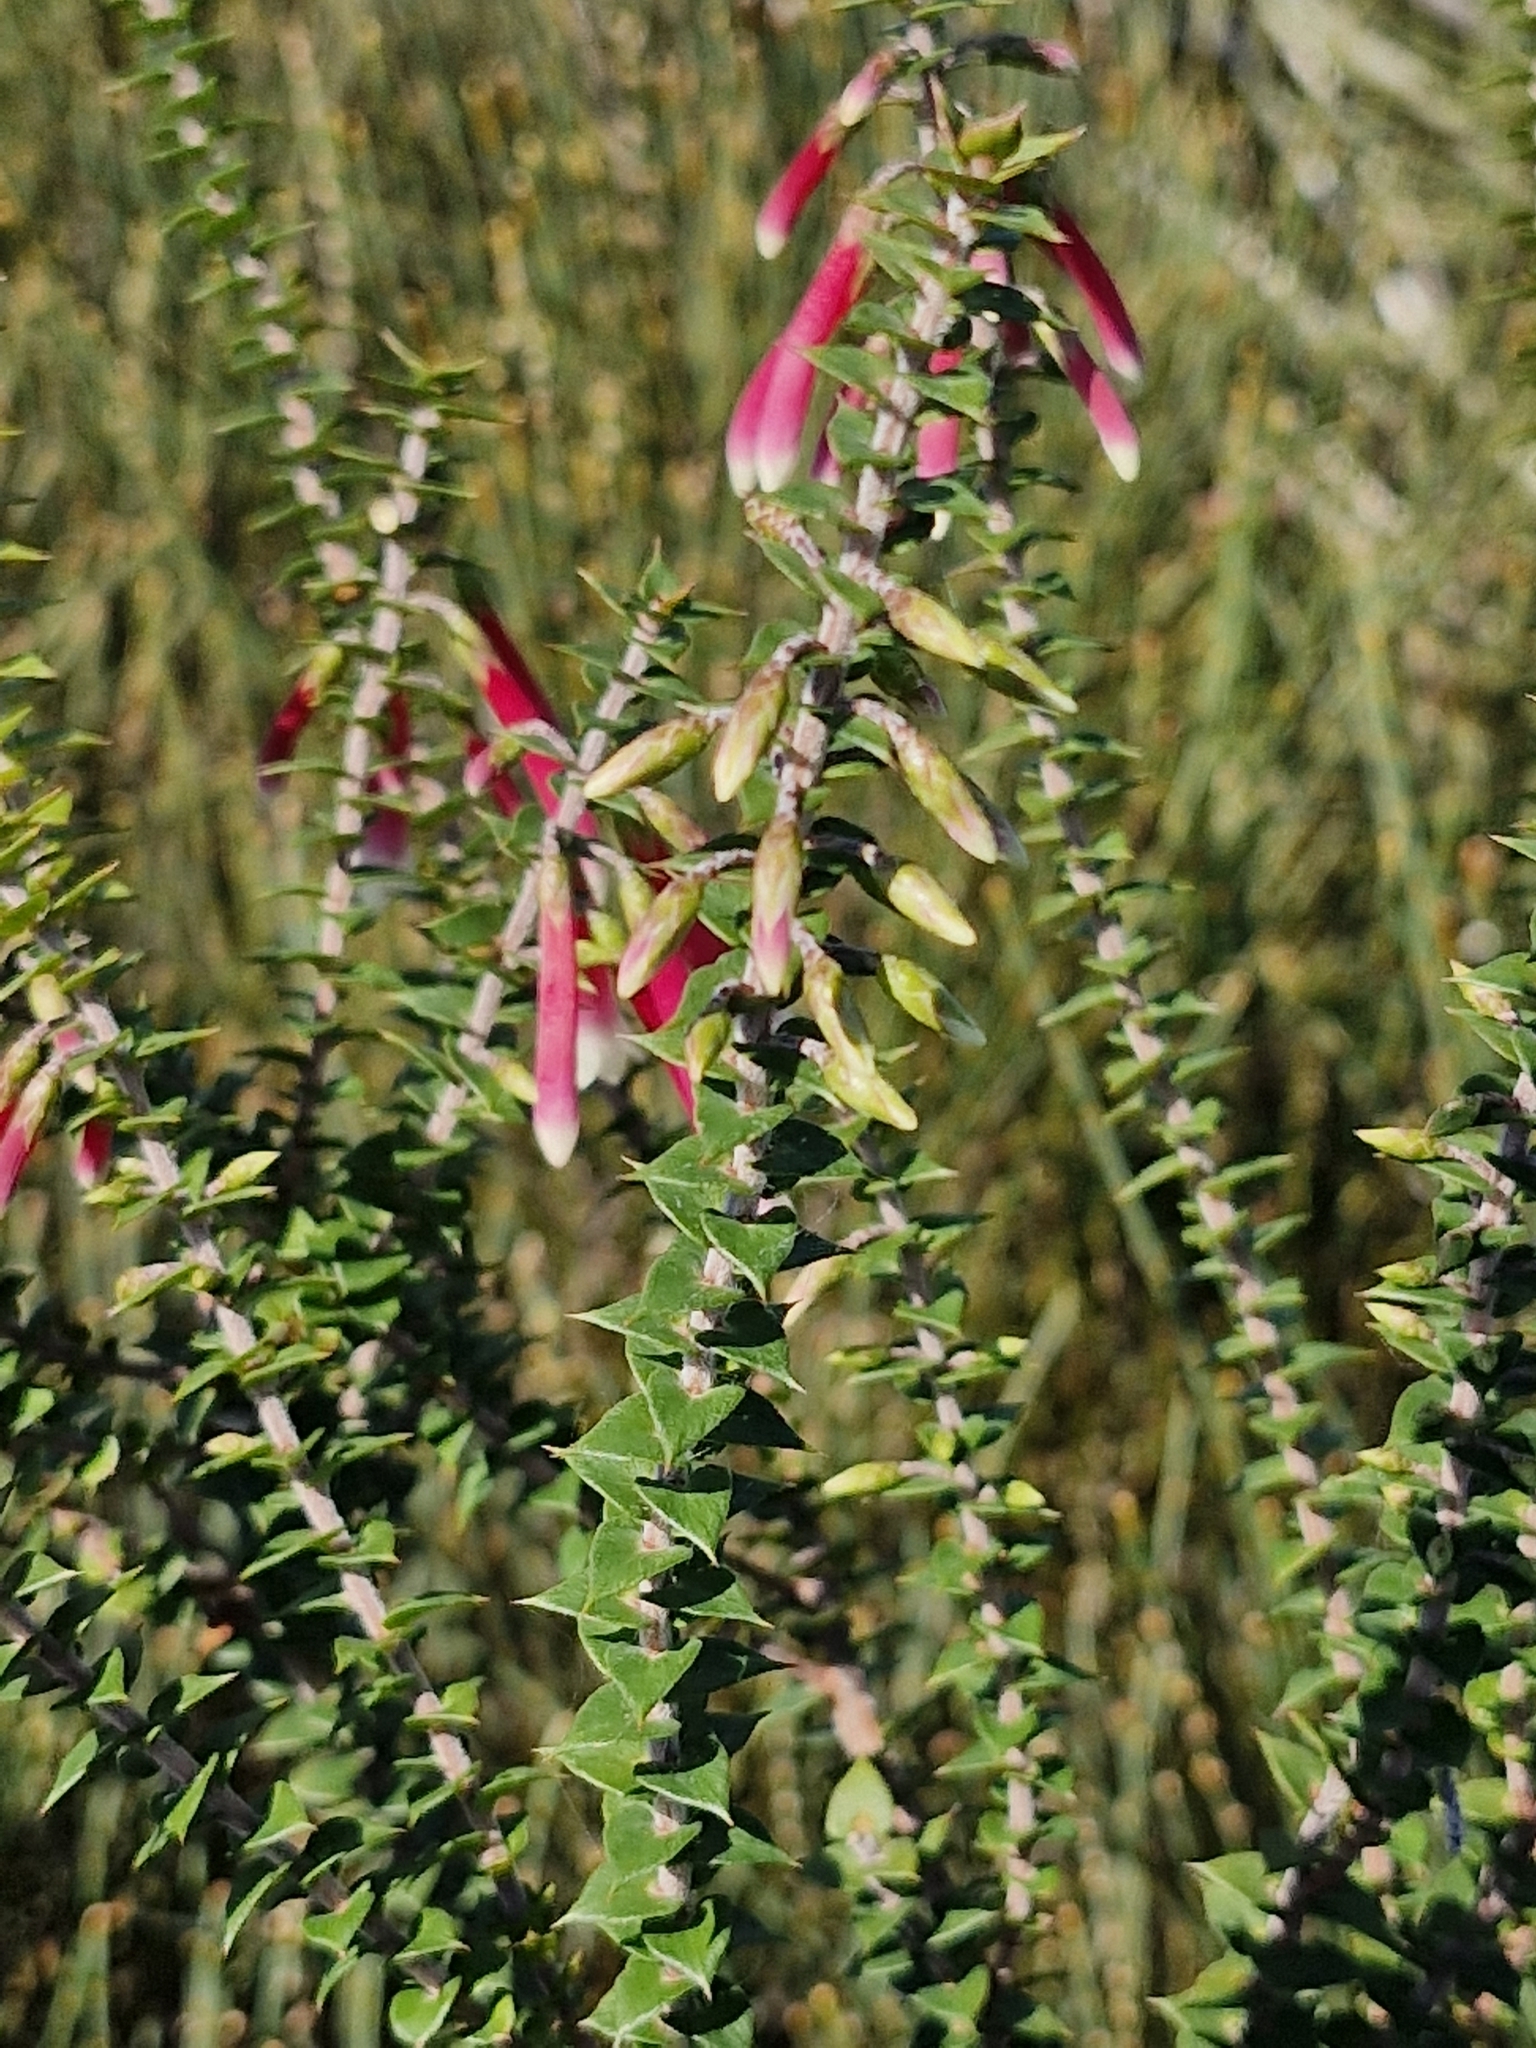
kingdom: Plantae
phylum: Tracheophyta
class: Magnoliopsida
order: Ericales
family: Ericaceae
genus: Epacris
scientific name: Epacris longiflora
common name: Fuchsia-heath
